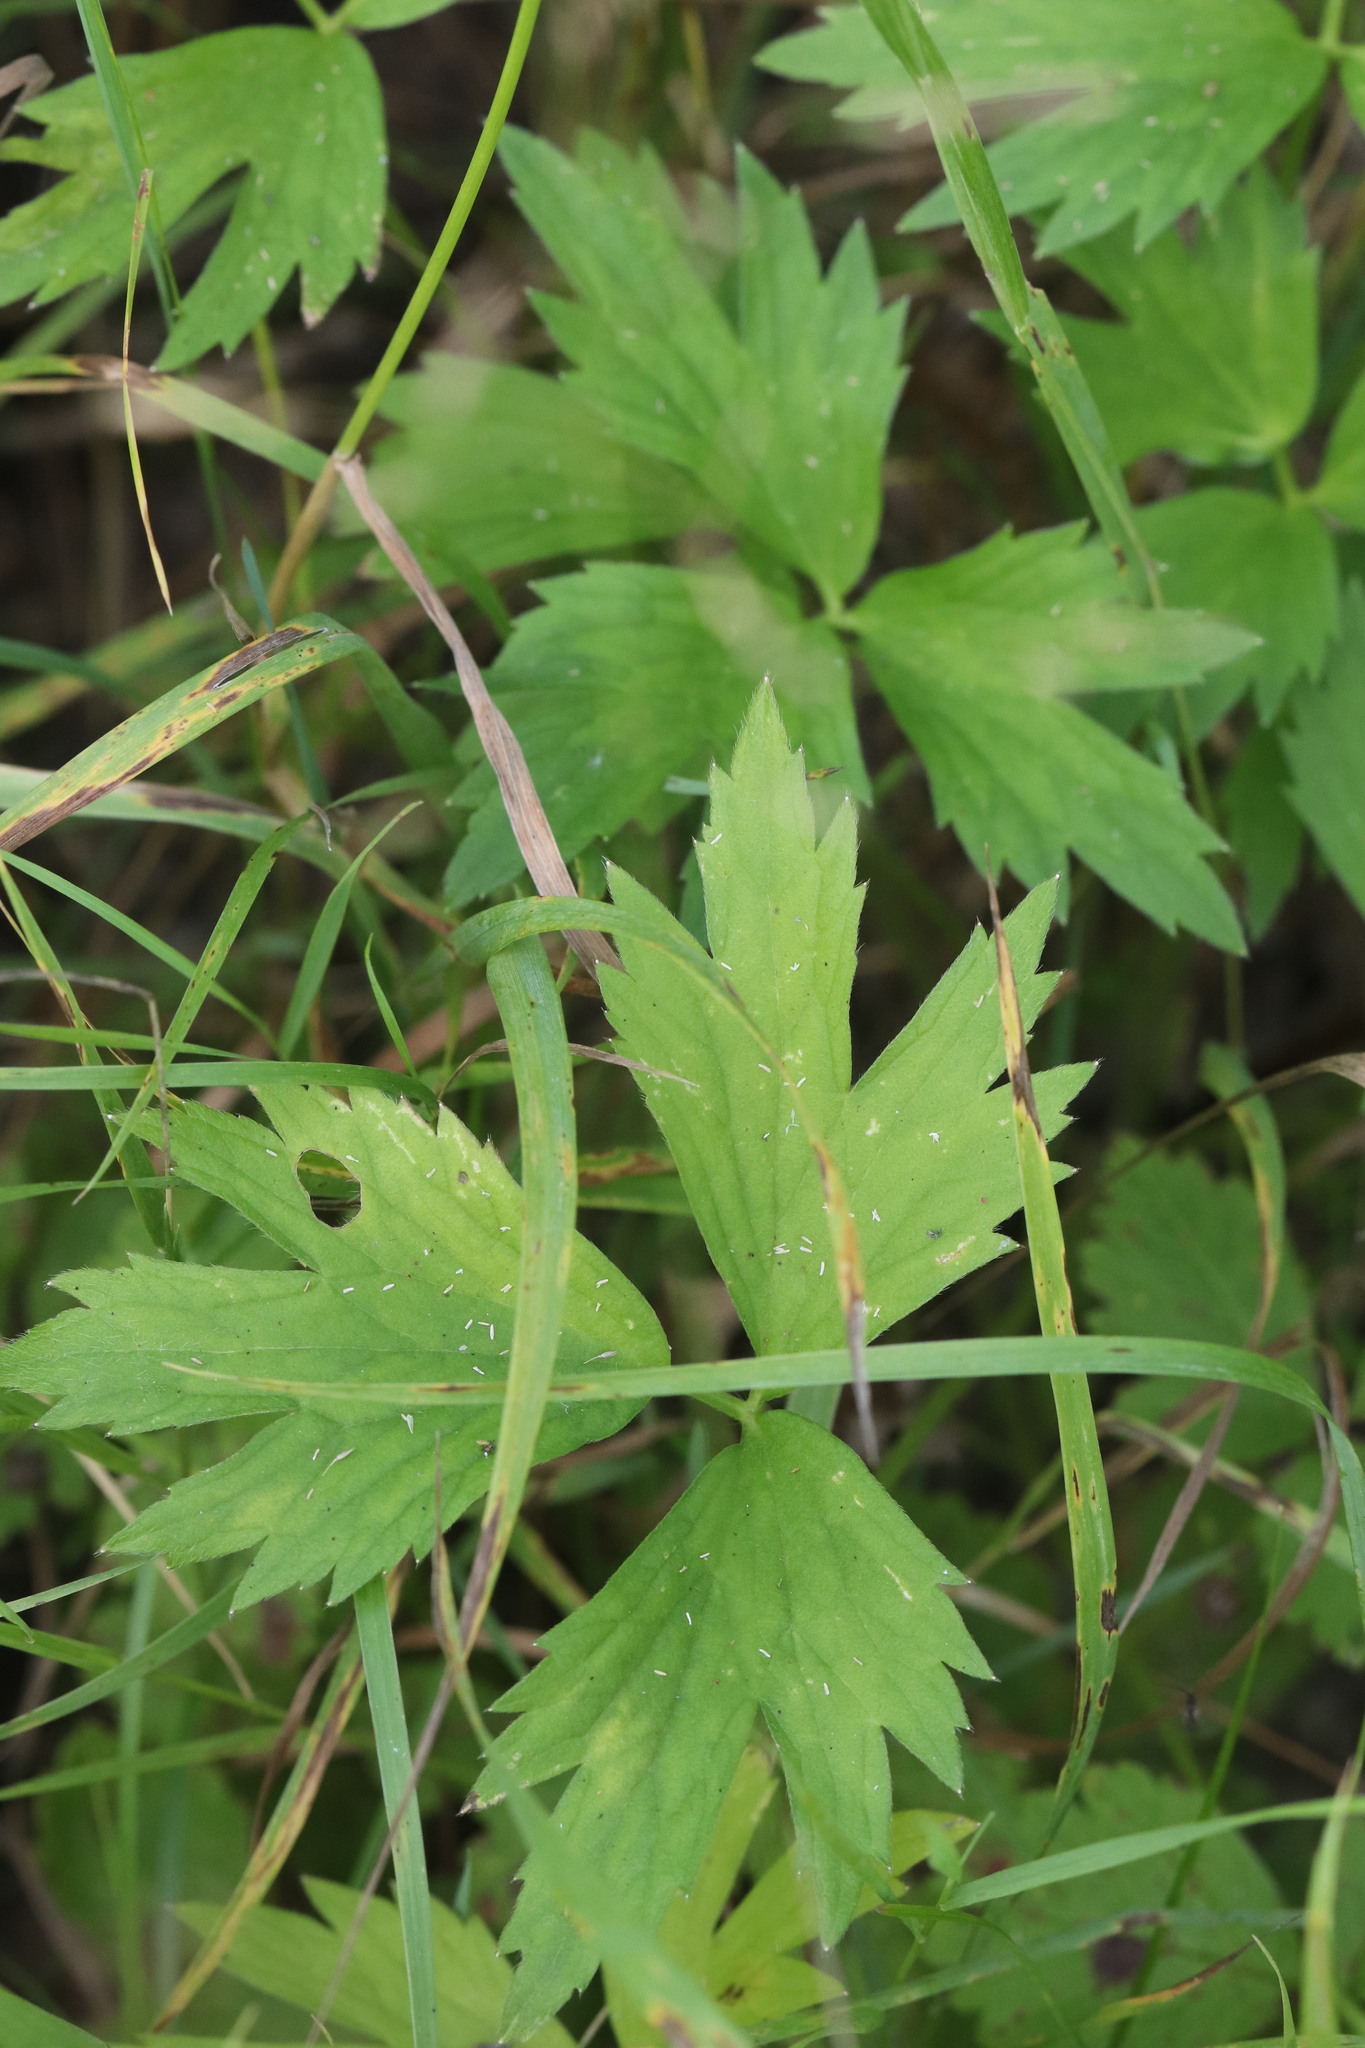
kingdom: Plantae
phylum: Tracheophyta
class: Magnoliopsida
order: Ranunculales
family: Ranunculaceae
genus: Ranunculus
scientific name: Ranunculus repens
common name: Creeping buttercup
